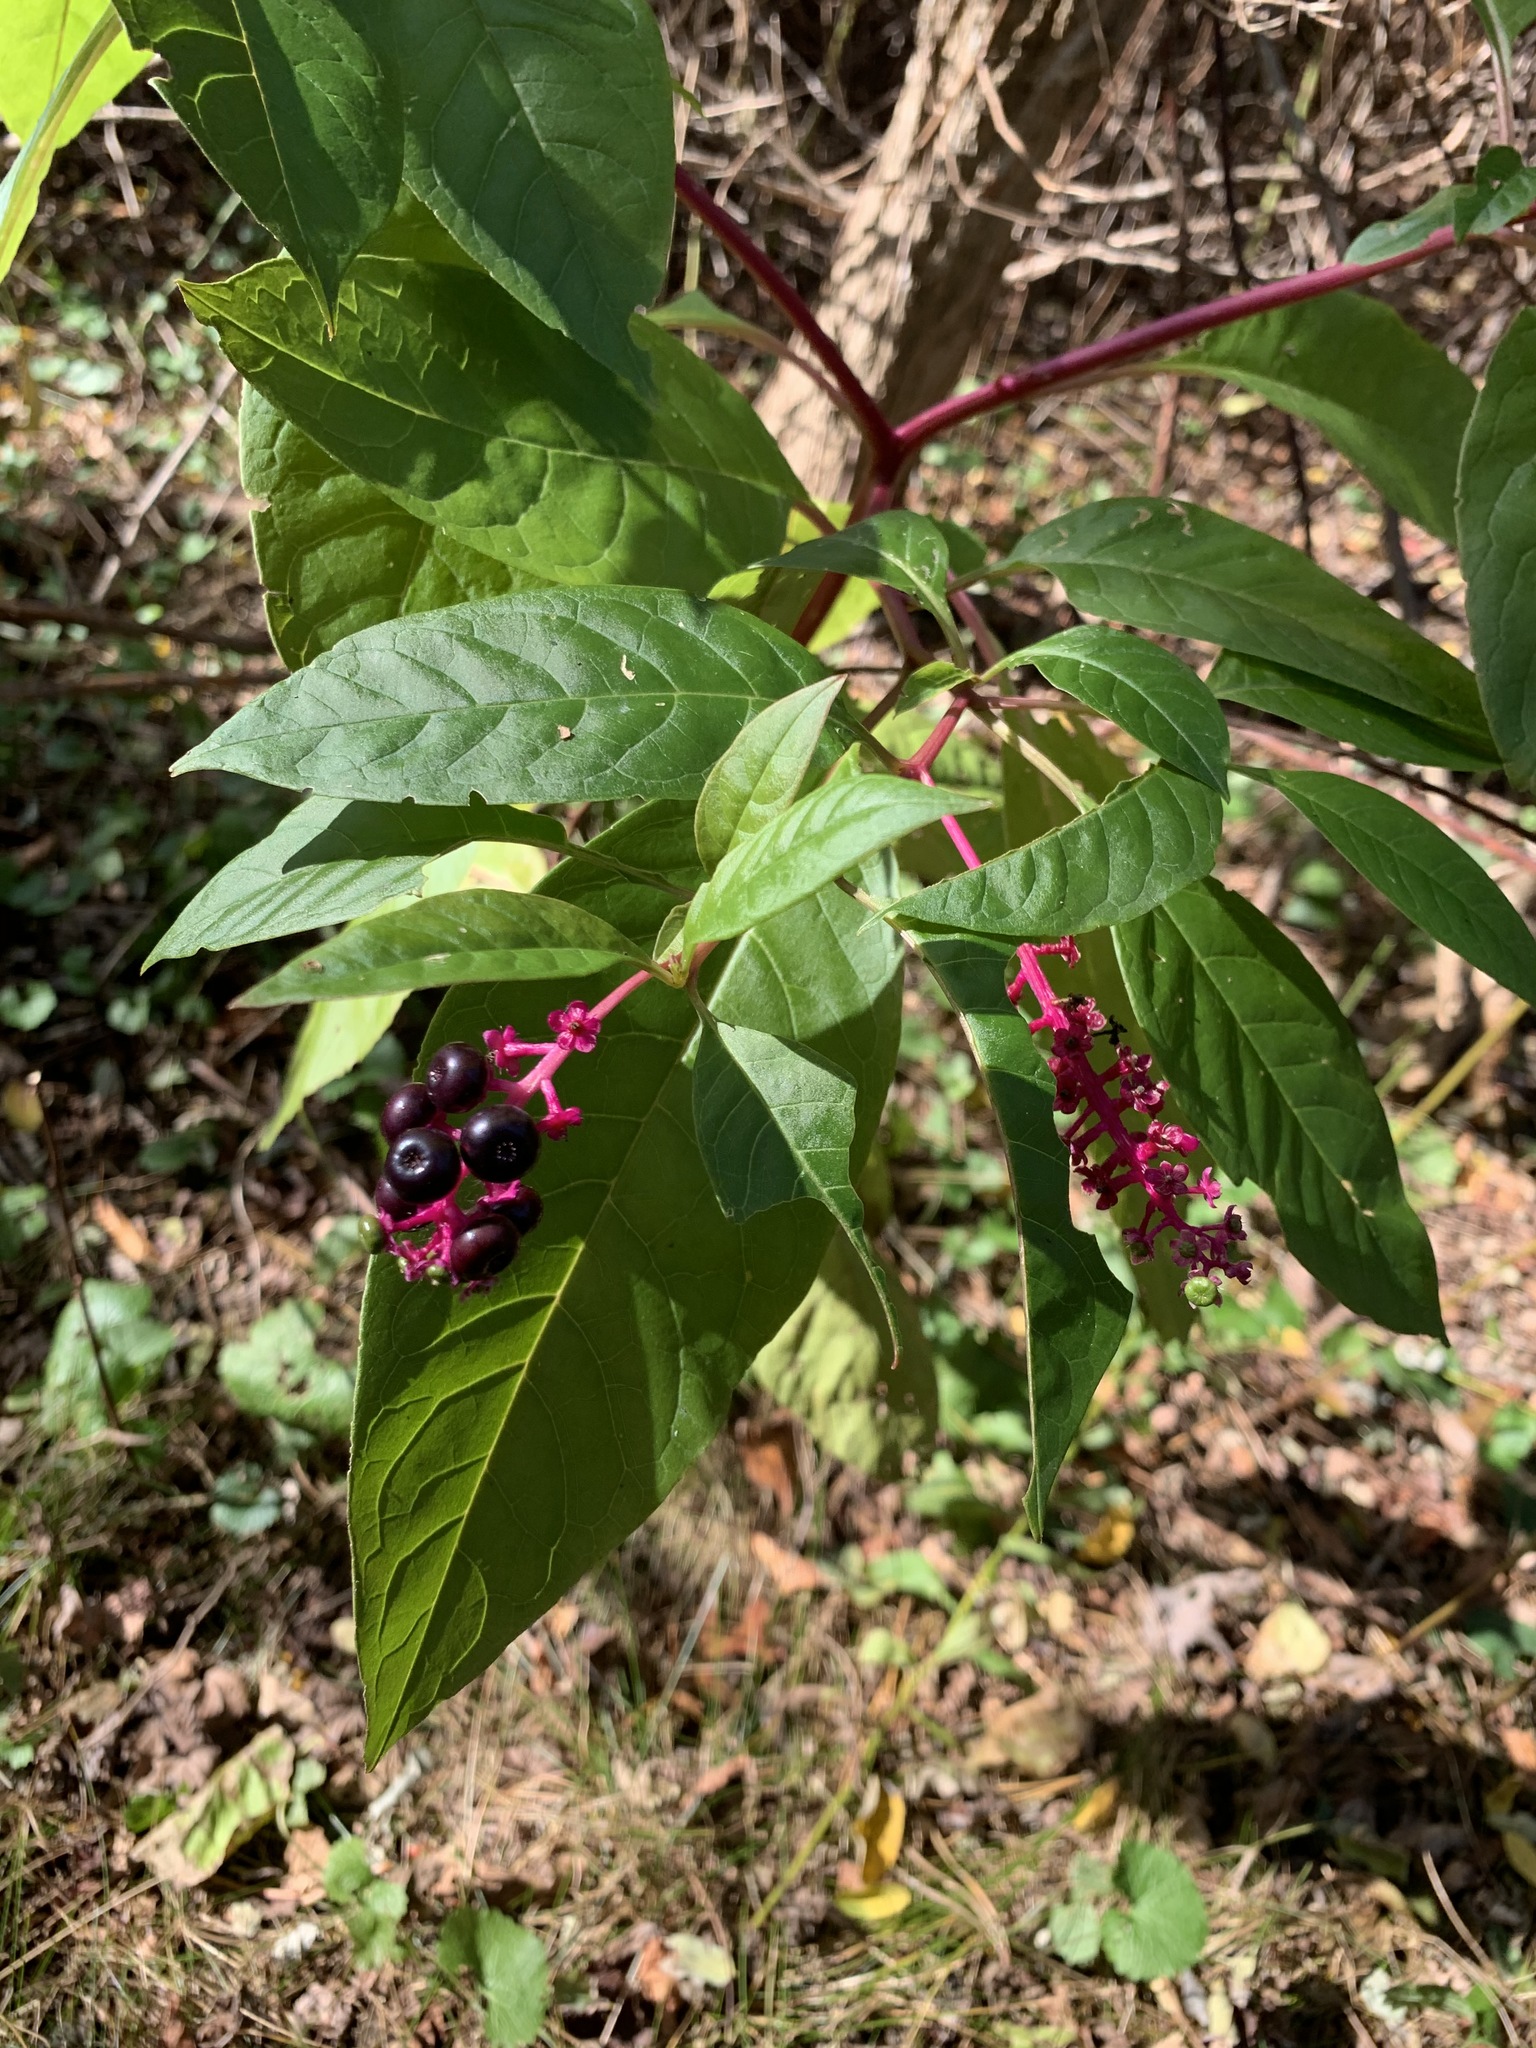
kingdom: Plantae
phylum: Tracheophyta
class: Magnoliopsida
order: Caryophyllales
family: Phytolaccaceae
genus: Phytolacca
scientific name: Phytolacca americana
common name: American pokeweed
